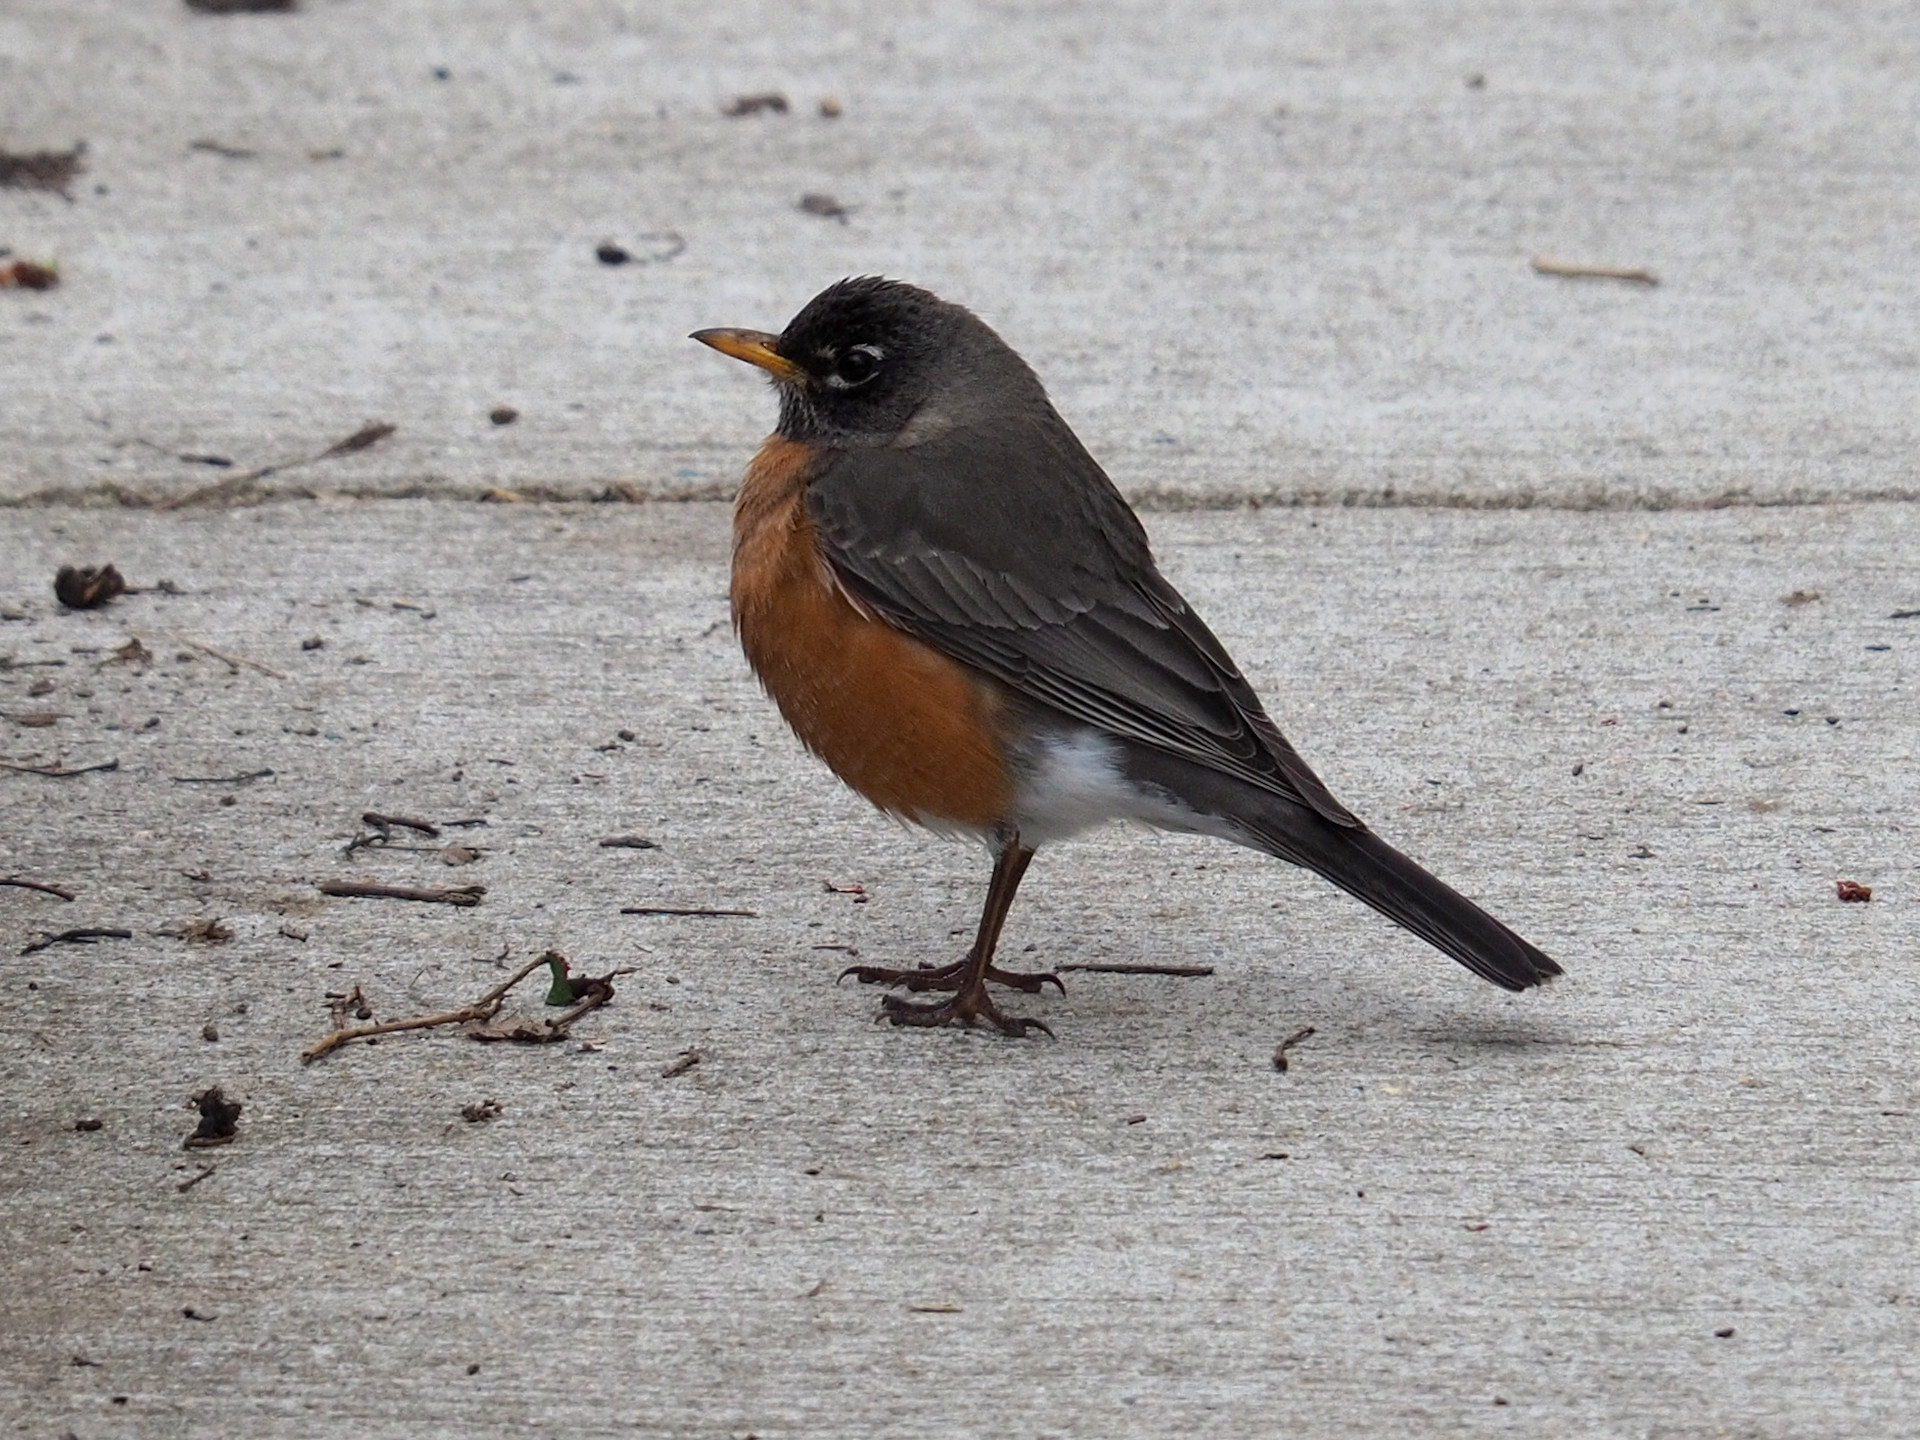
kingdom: Animalia
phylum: Chordata
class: Aves
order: Passeriformes
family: Turdidae
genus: Turdus
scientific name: Turdus migratorius
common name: American robin
